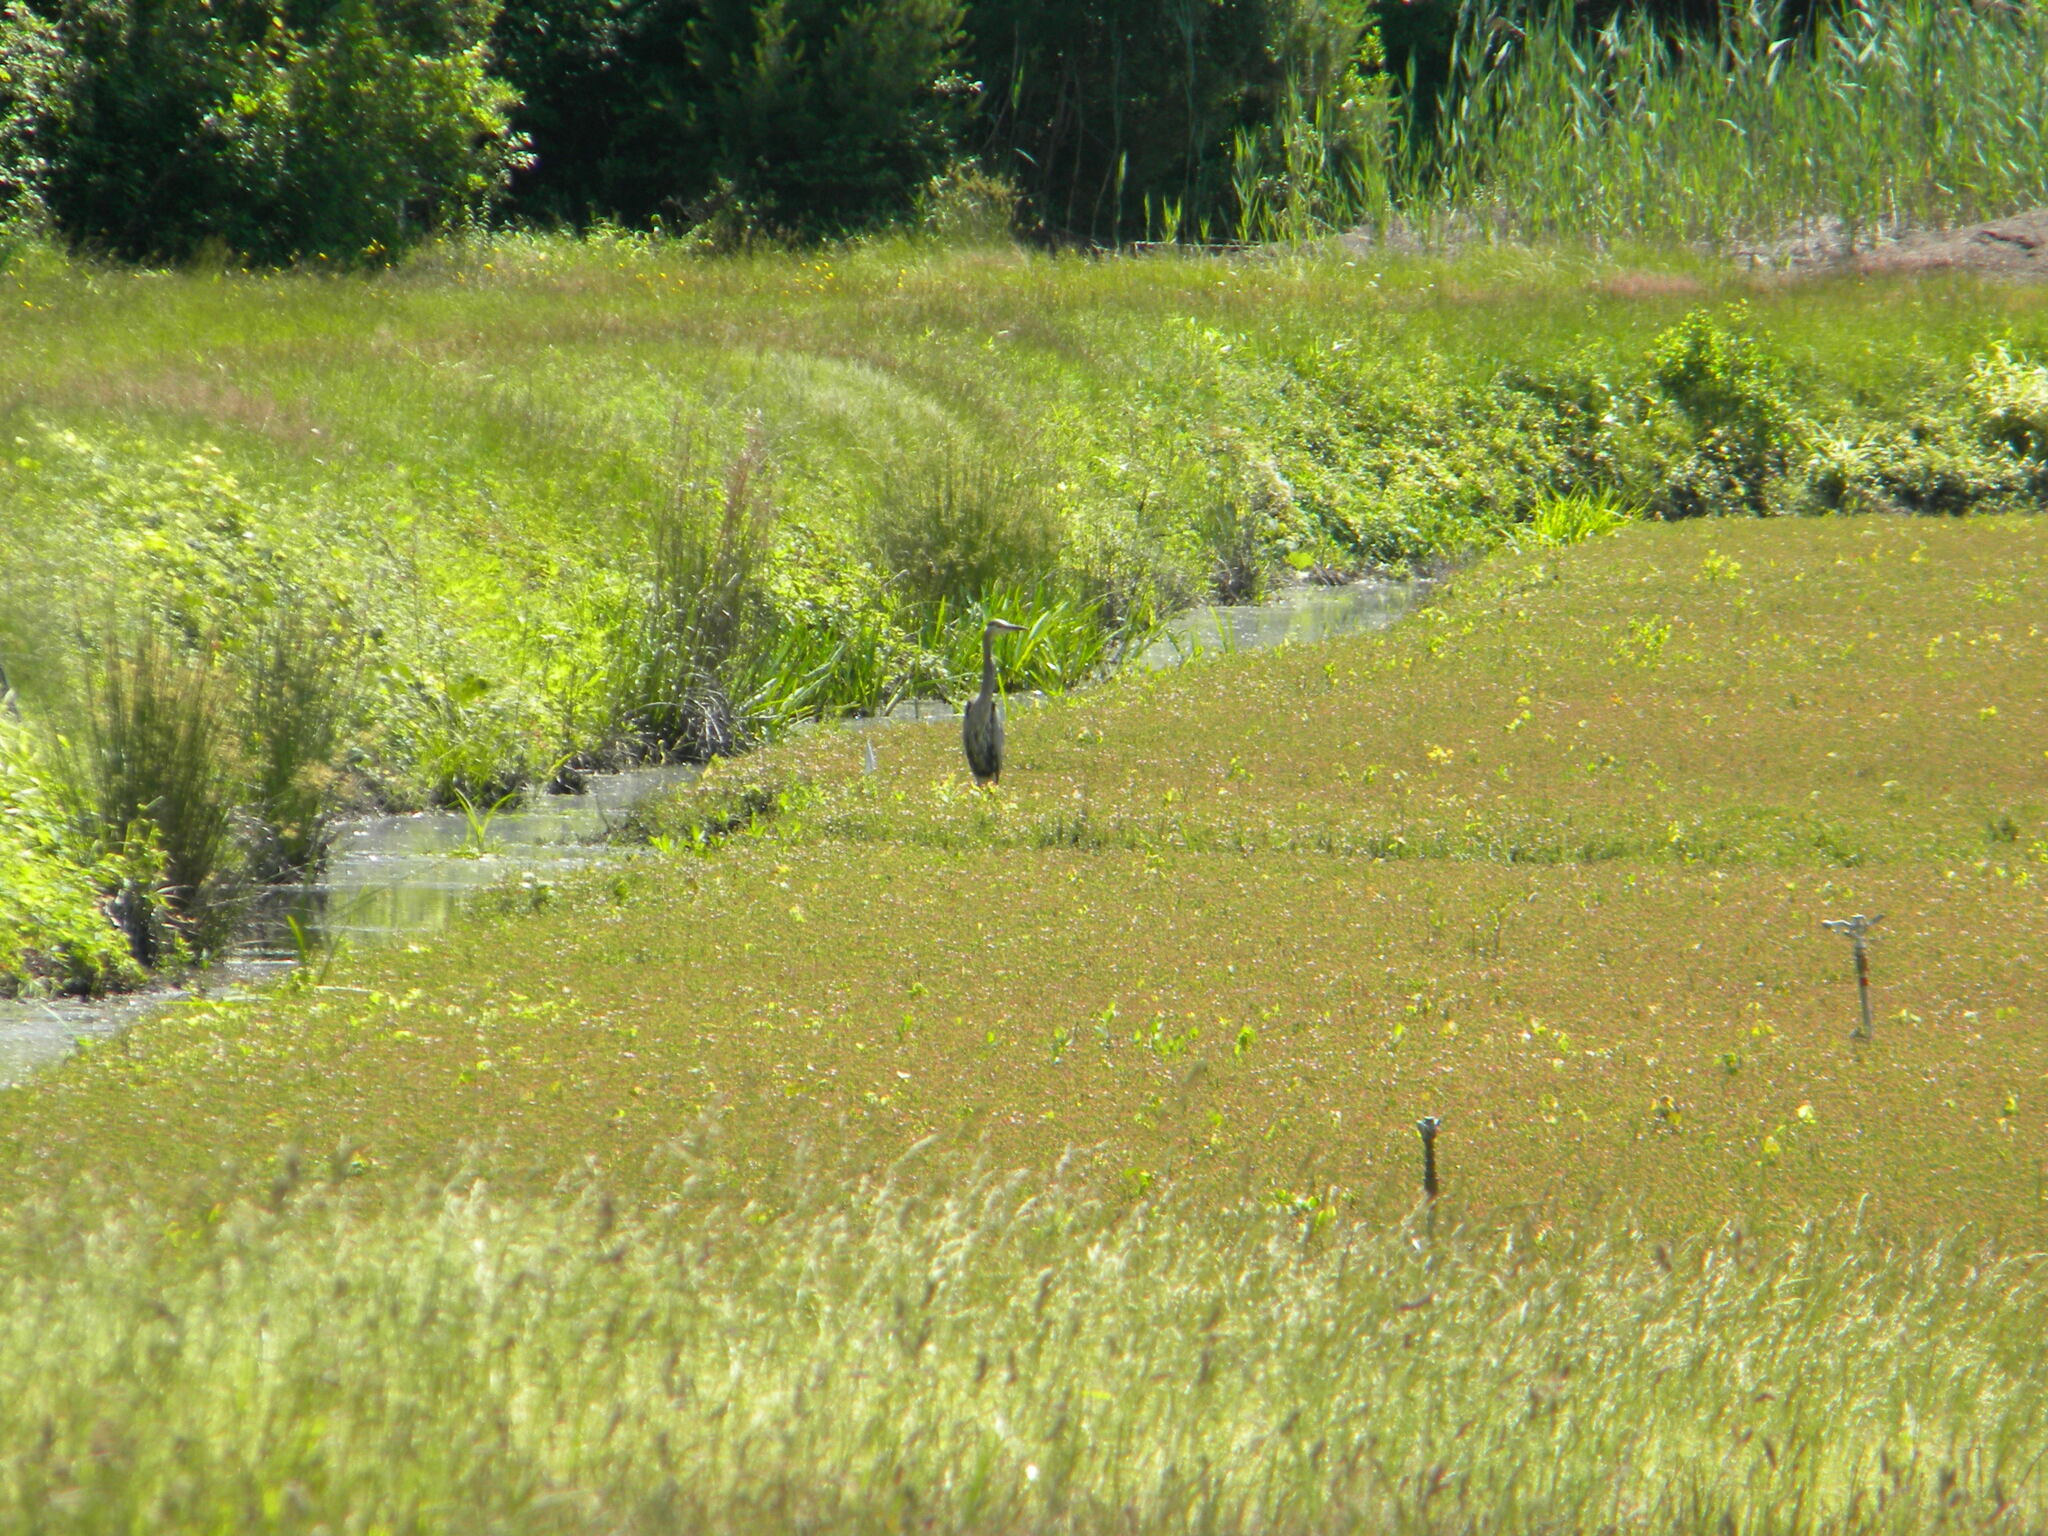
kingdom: Animalia
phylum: Chordata
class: Aves
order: Pelecaniformes
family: Ardeidae
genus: Ardea
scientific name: Ardea herodias
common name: Great blue heron
